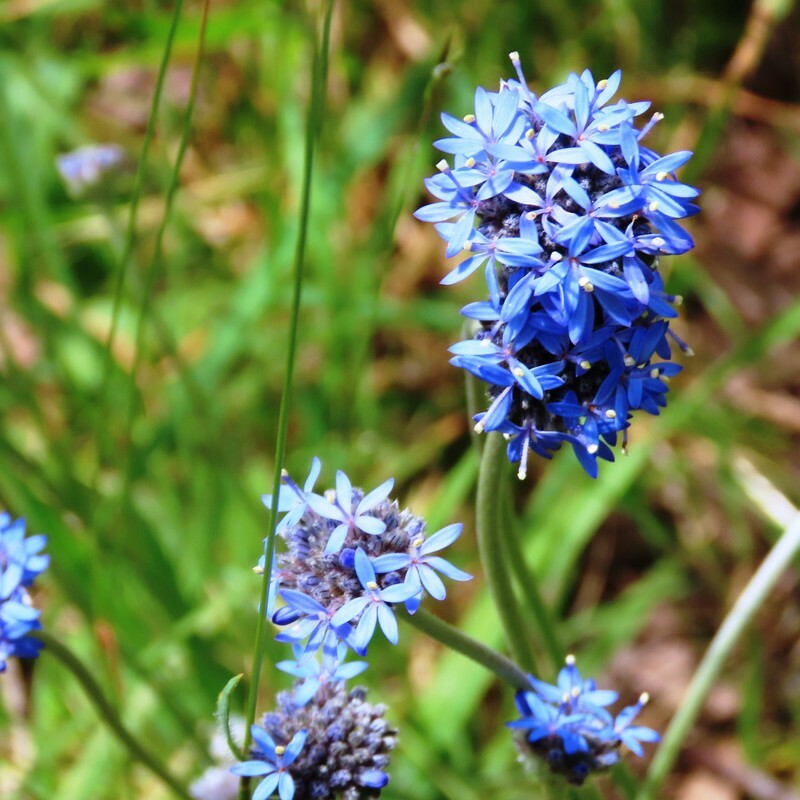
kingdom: Plantae
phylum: Tracheophyta
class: Magnoliopsida
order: Asterales
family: Goodeniaceae
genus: Brunonia
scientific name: Brunonia australis
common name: Blue pincushion
